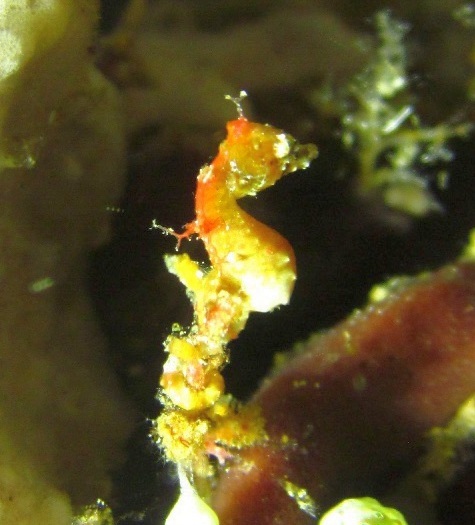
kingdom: Animalia
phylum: Chordata
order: Syngnathiformes
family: Syngnathidae
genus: Hippocampus
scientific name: Hippocampus pontohi
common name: Pontoh`s pygmy seahorse
